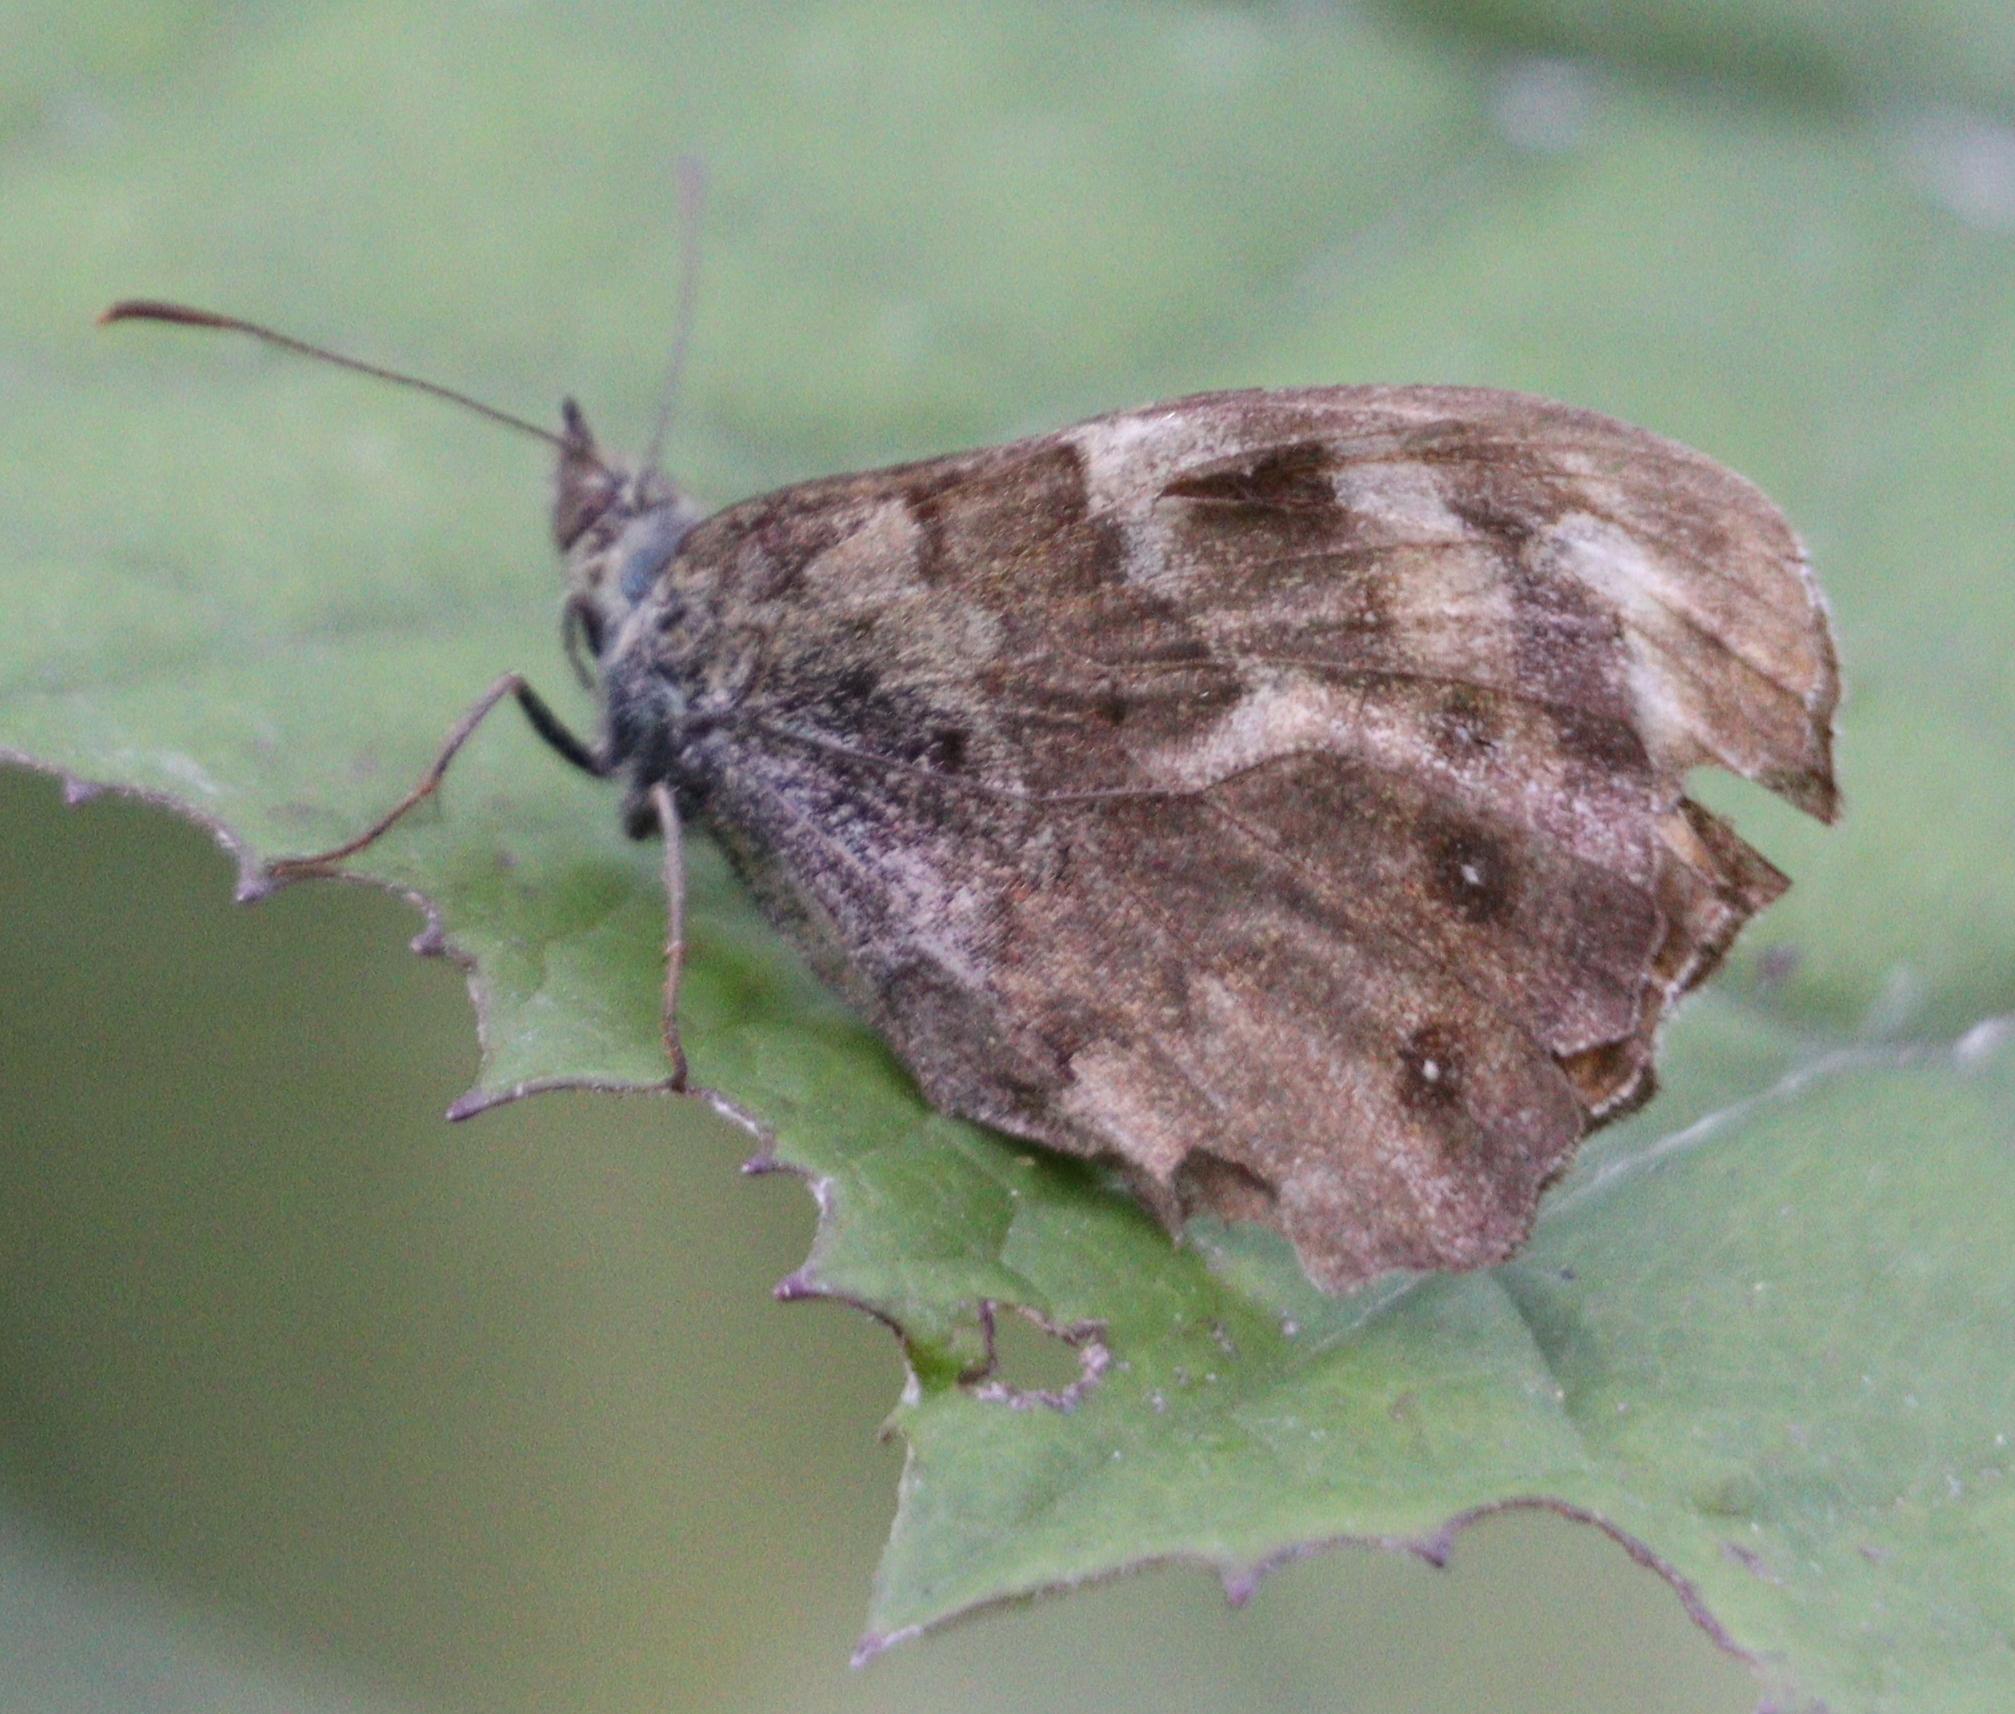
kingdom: Animalia
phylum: Arthropoda
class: Insecta
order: Lepidoptera
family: Nymphalidae
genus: Pararge
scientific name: Pararge aegeria
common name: Speckled wood
